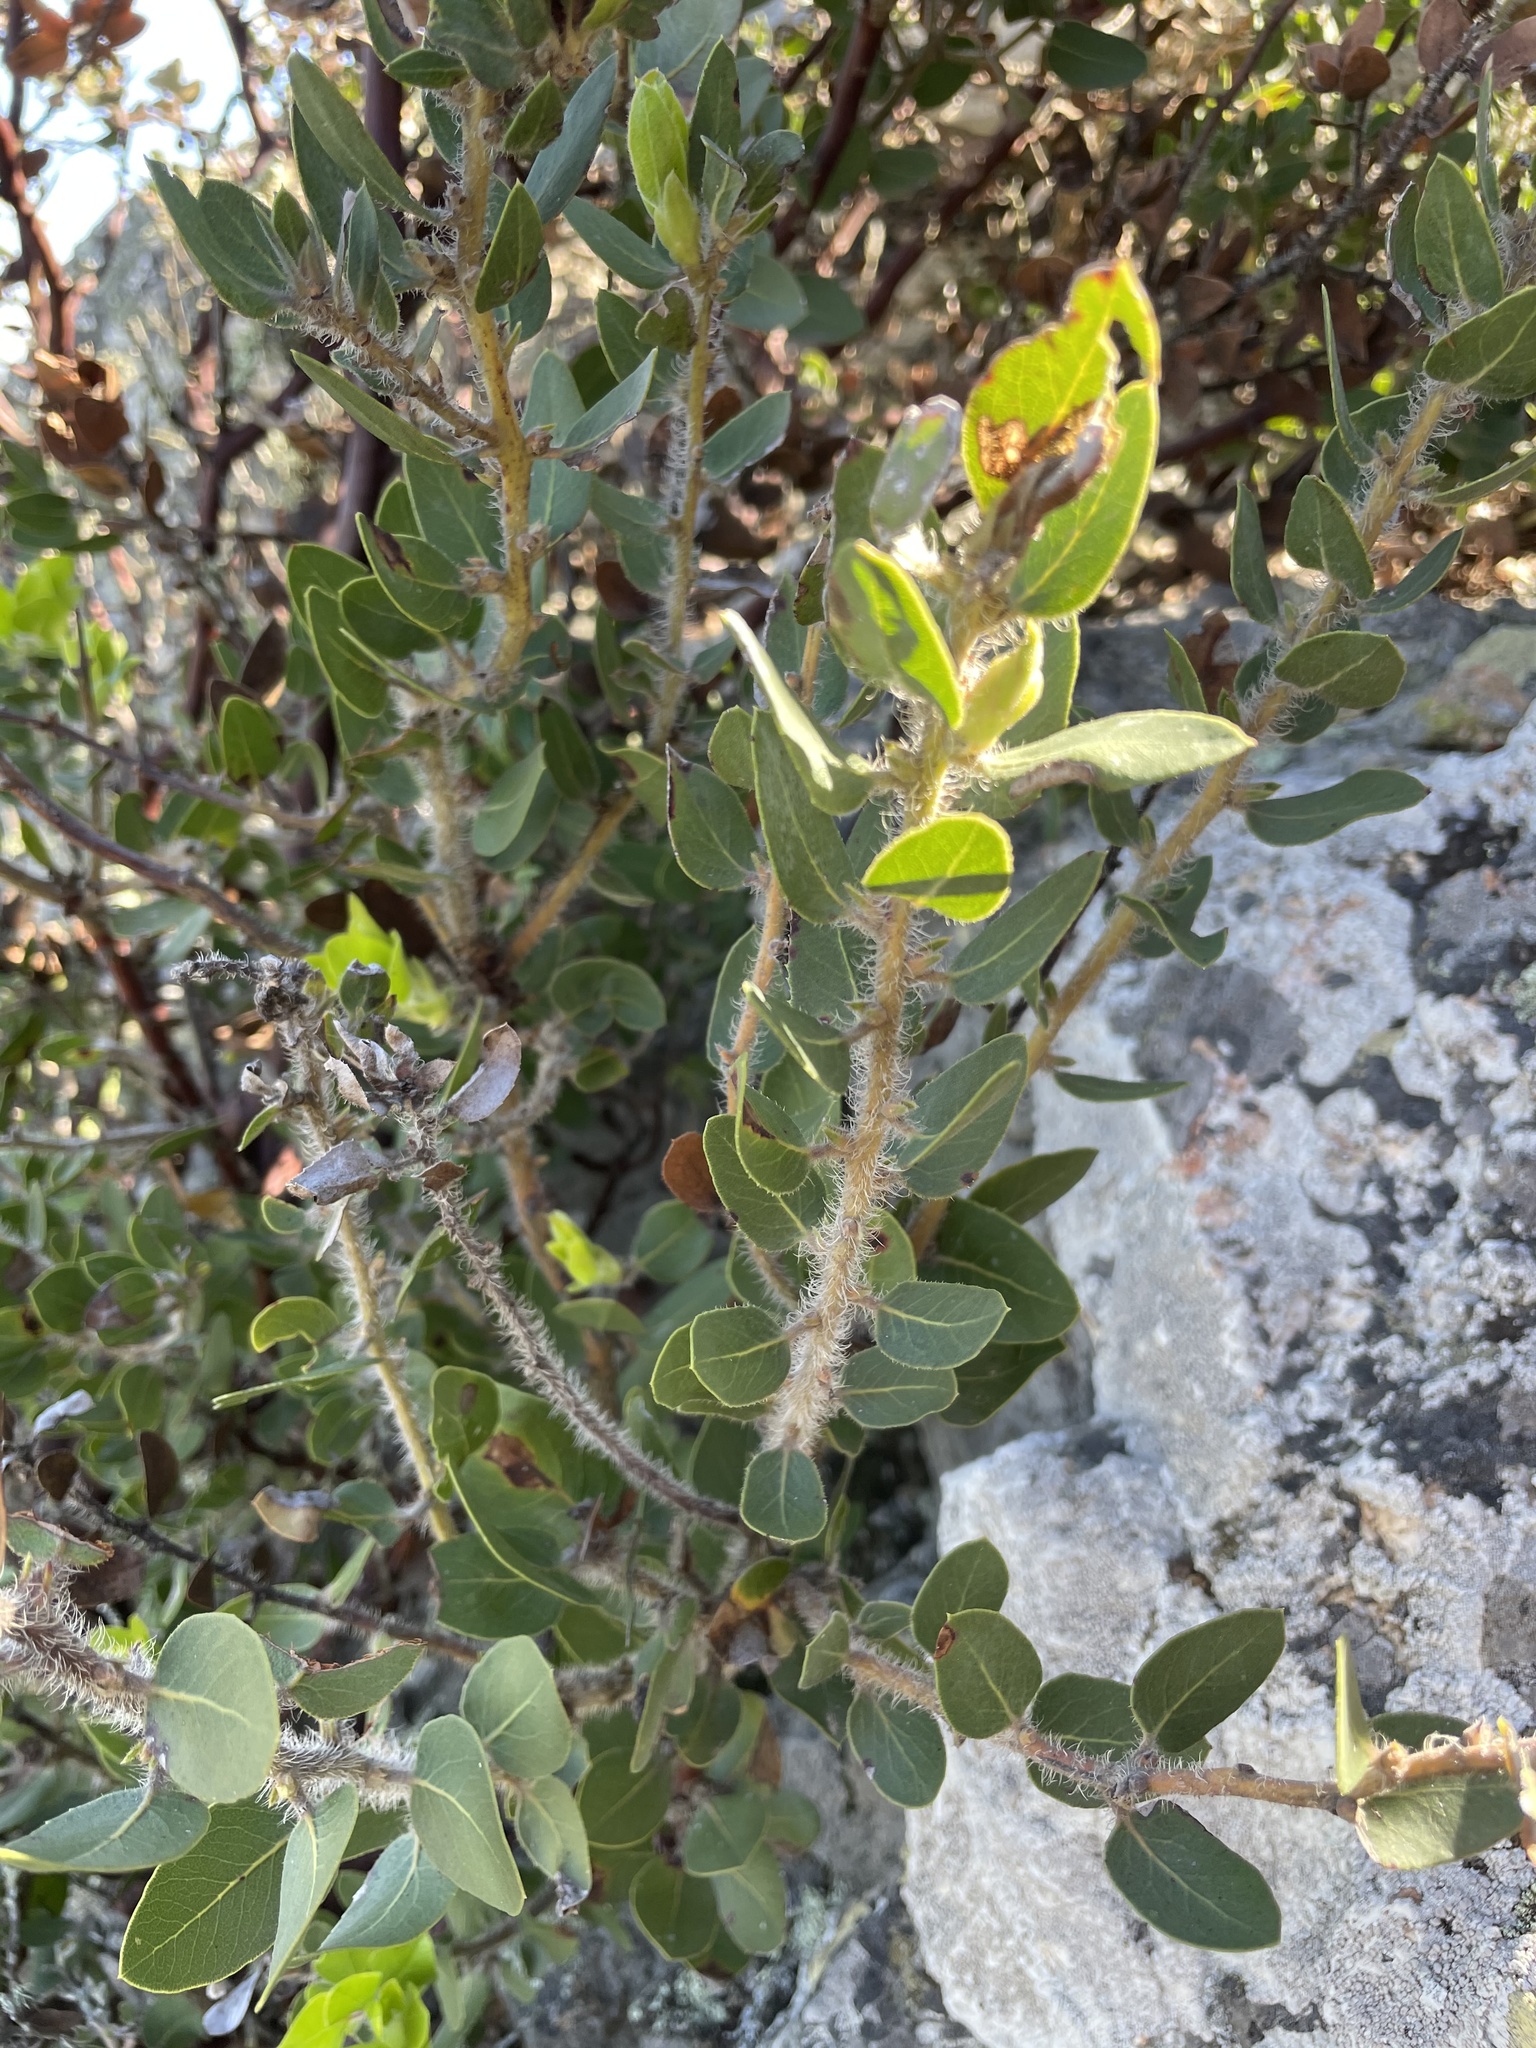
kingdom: Plantae
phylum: Tracheophyta
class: Magnoliopsida
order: Ericales
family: Ericaceae
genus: Arctostaphylos
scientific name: Arctostaphylos catalinae
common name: Santa catalina island manzanita
